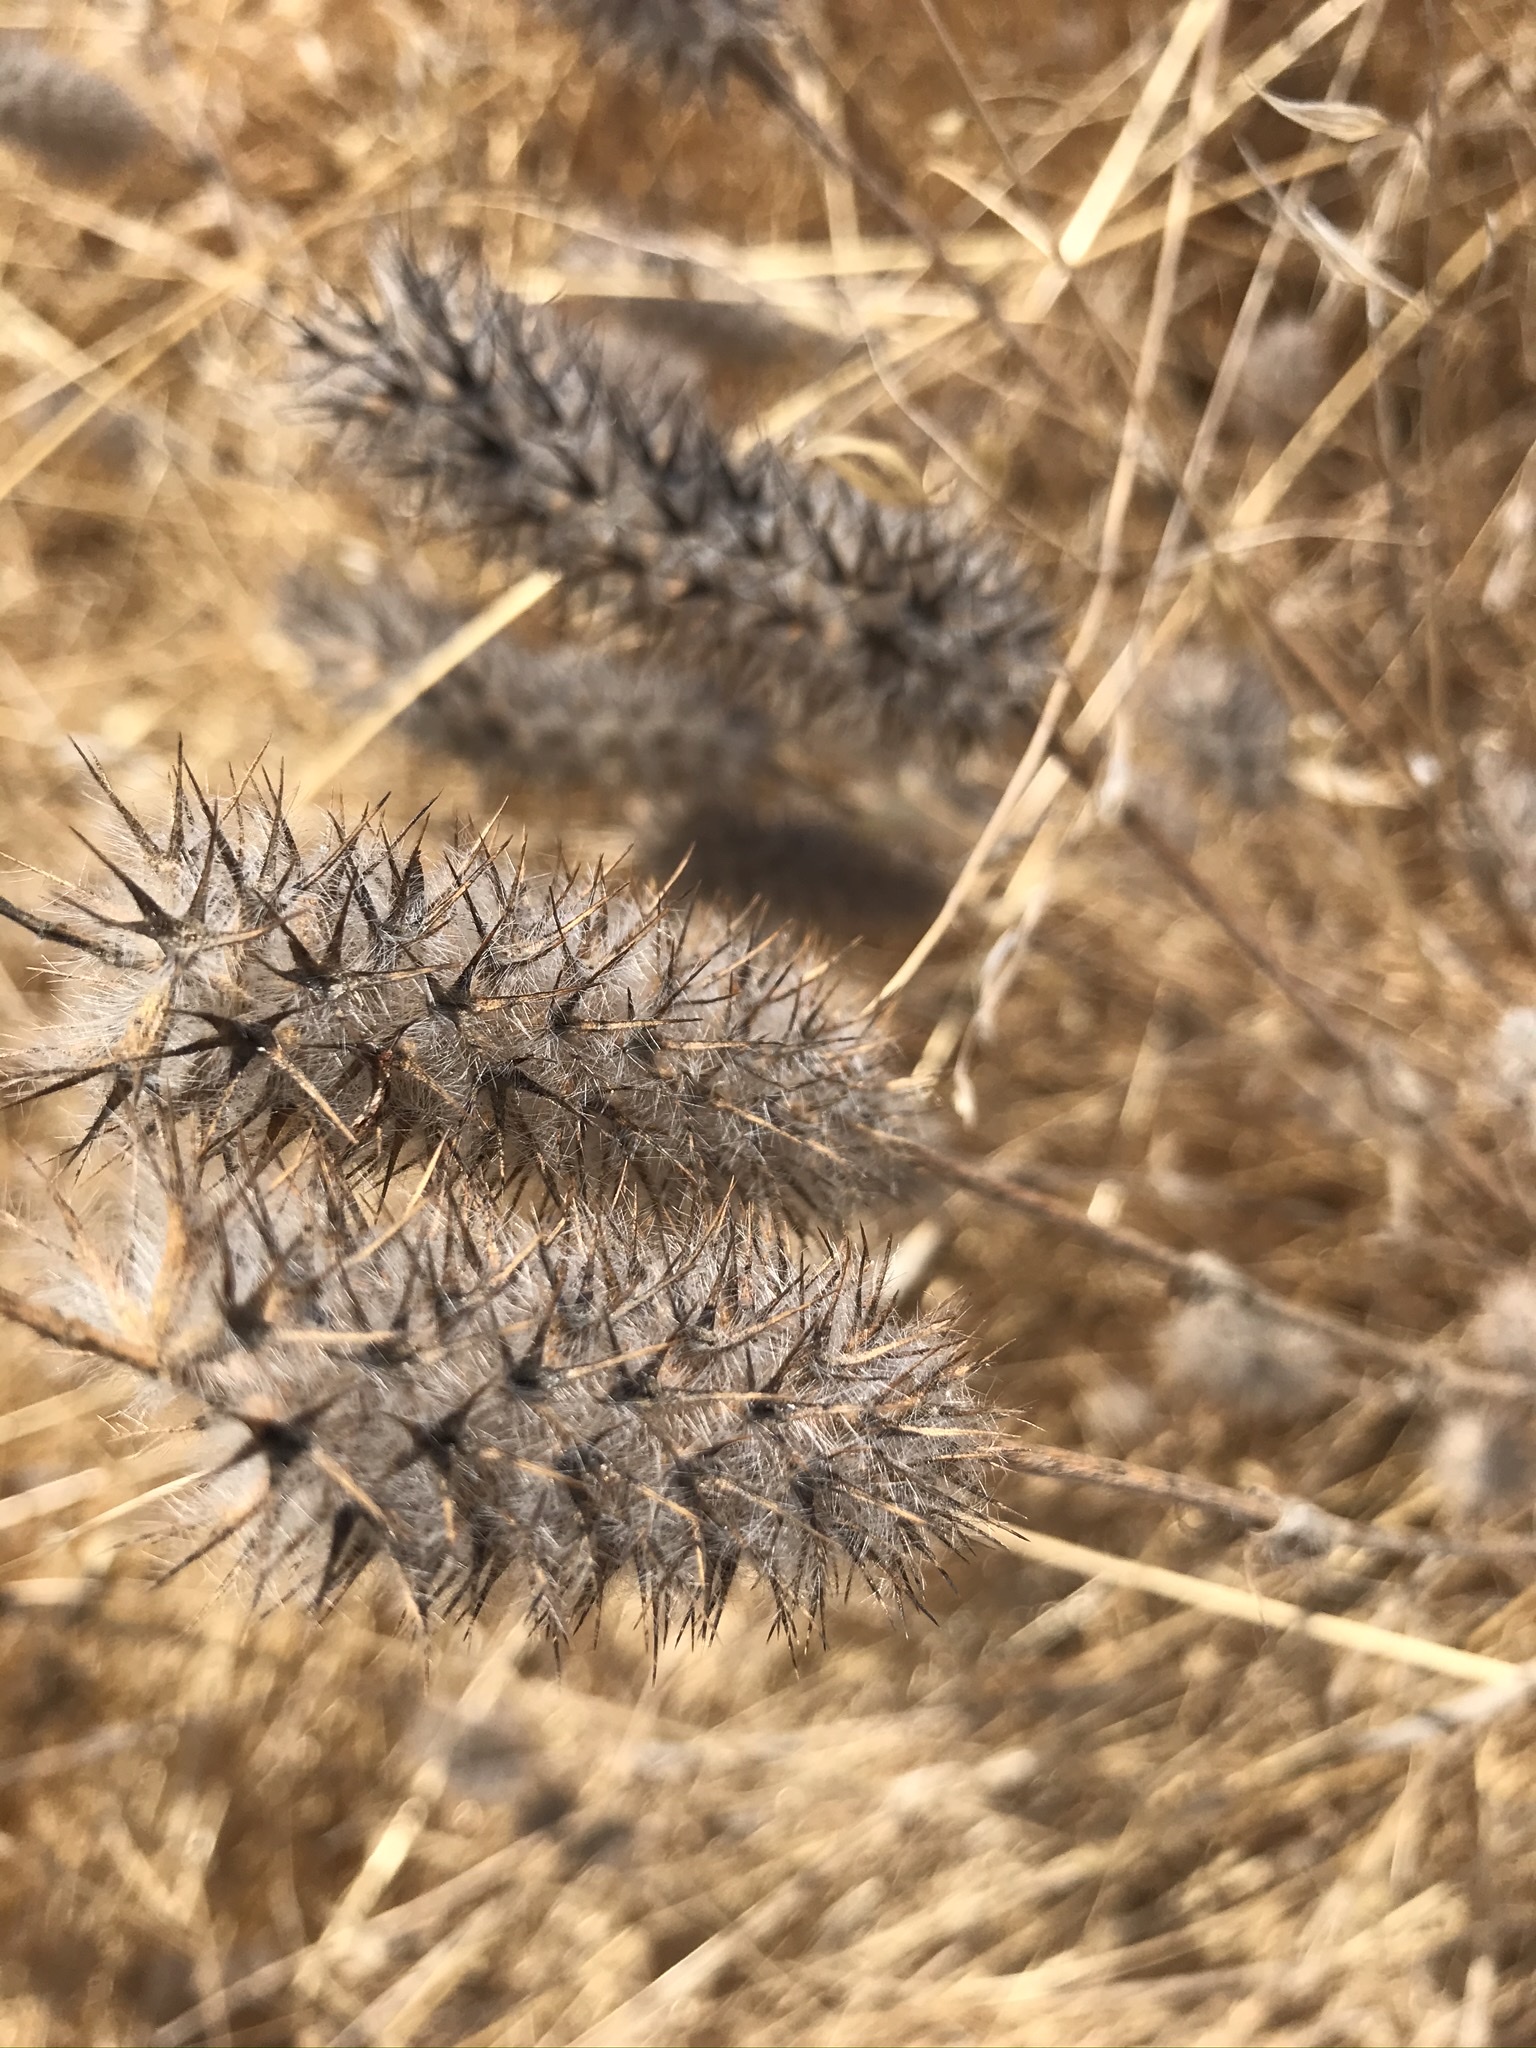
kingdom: Plantae
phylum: Tracheophyta
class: Magnoliopsida
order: Fabales
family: Fabaceae
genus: Trifolium
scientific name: Trifolium angustifolium
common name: Narrow clover
